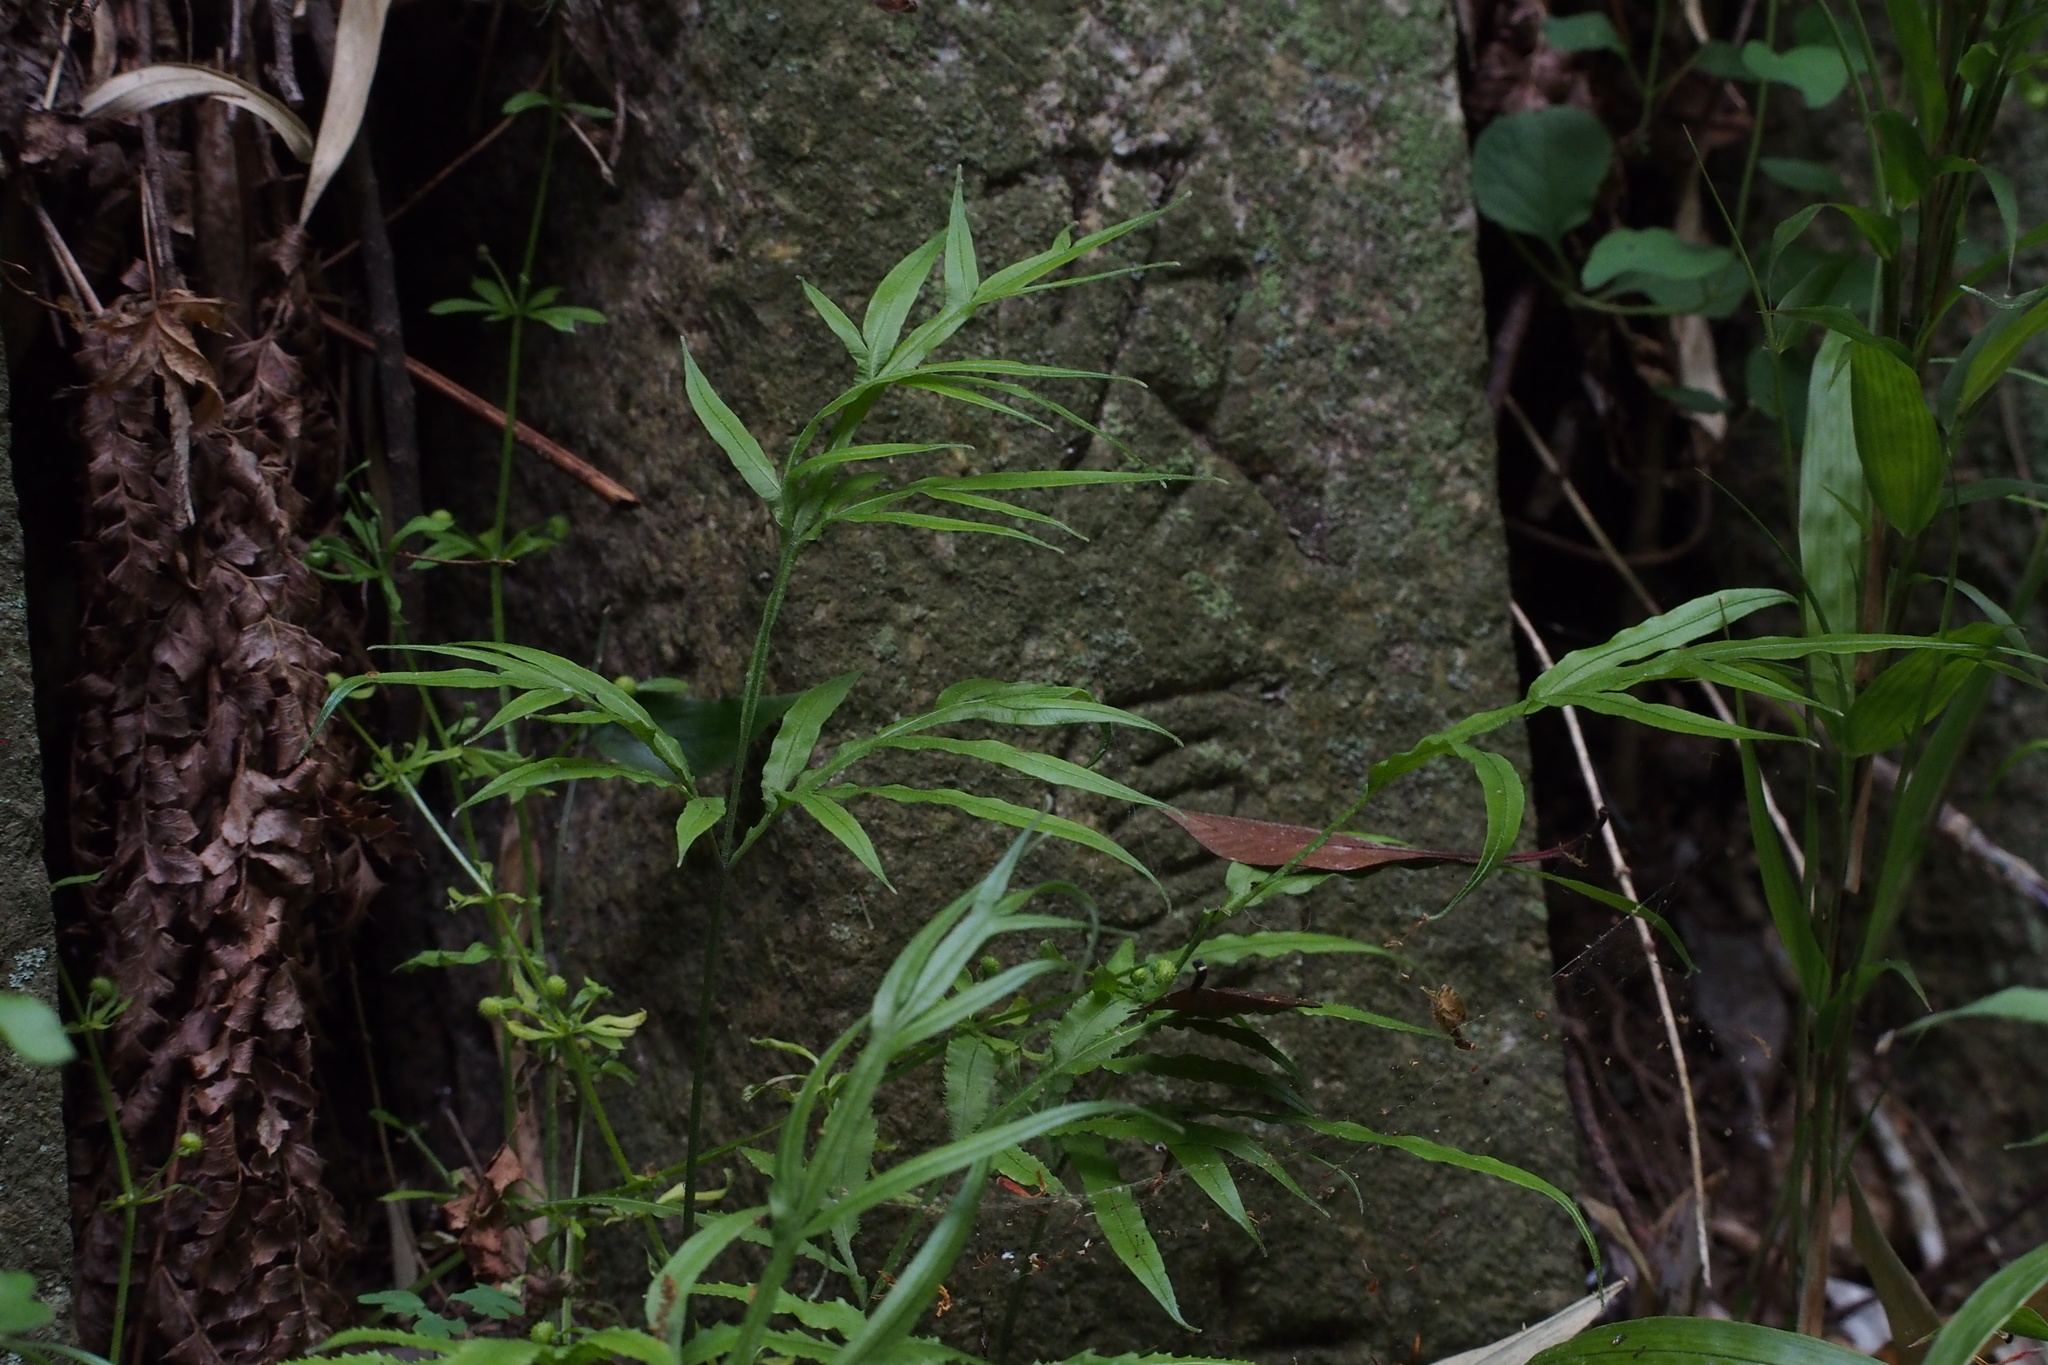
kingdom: Plantae
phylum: Tracheophyta
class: Polypodiopsida
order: Polypodiales
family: Pteridaceae
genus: Pteris
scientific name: Pteris multifida
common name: Spider brake
